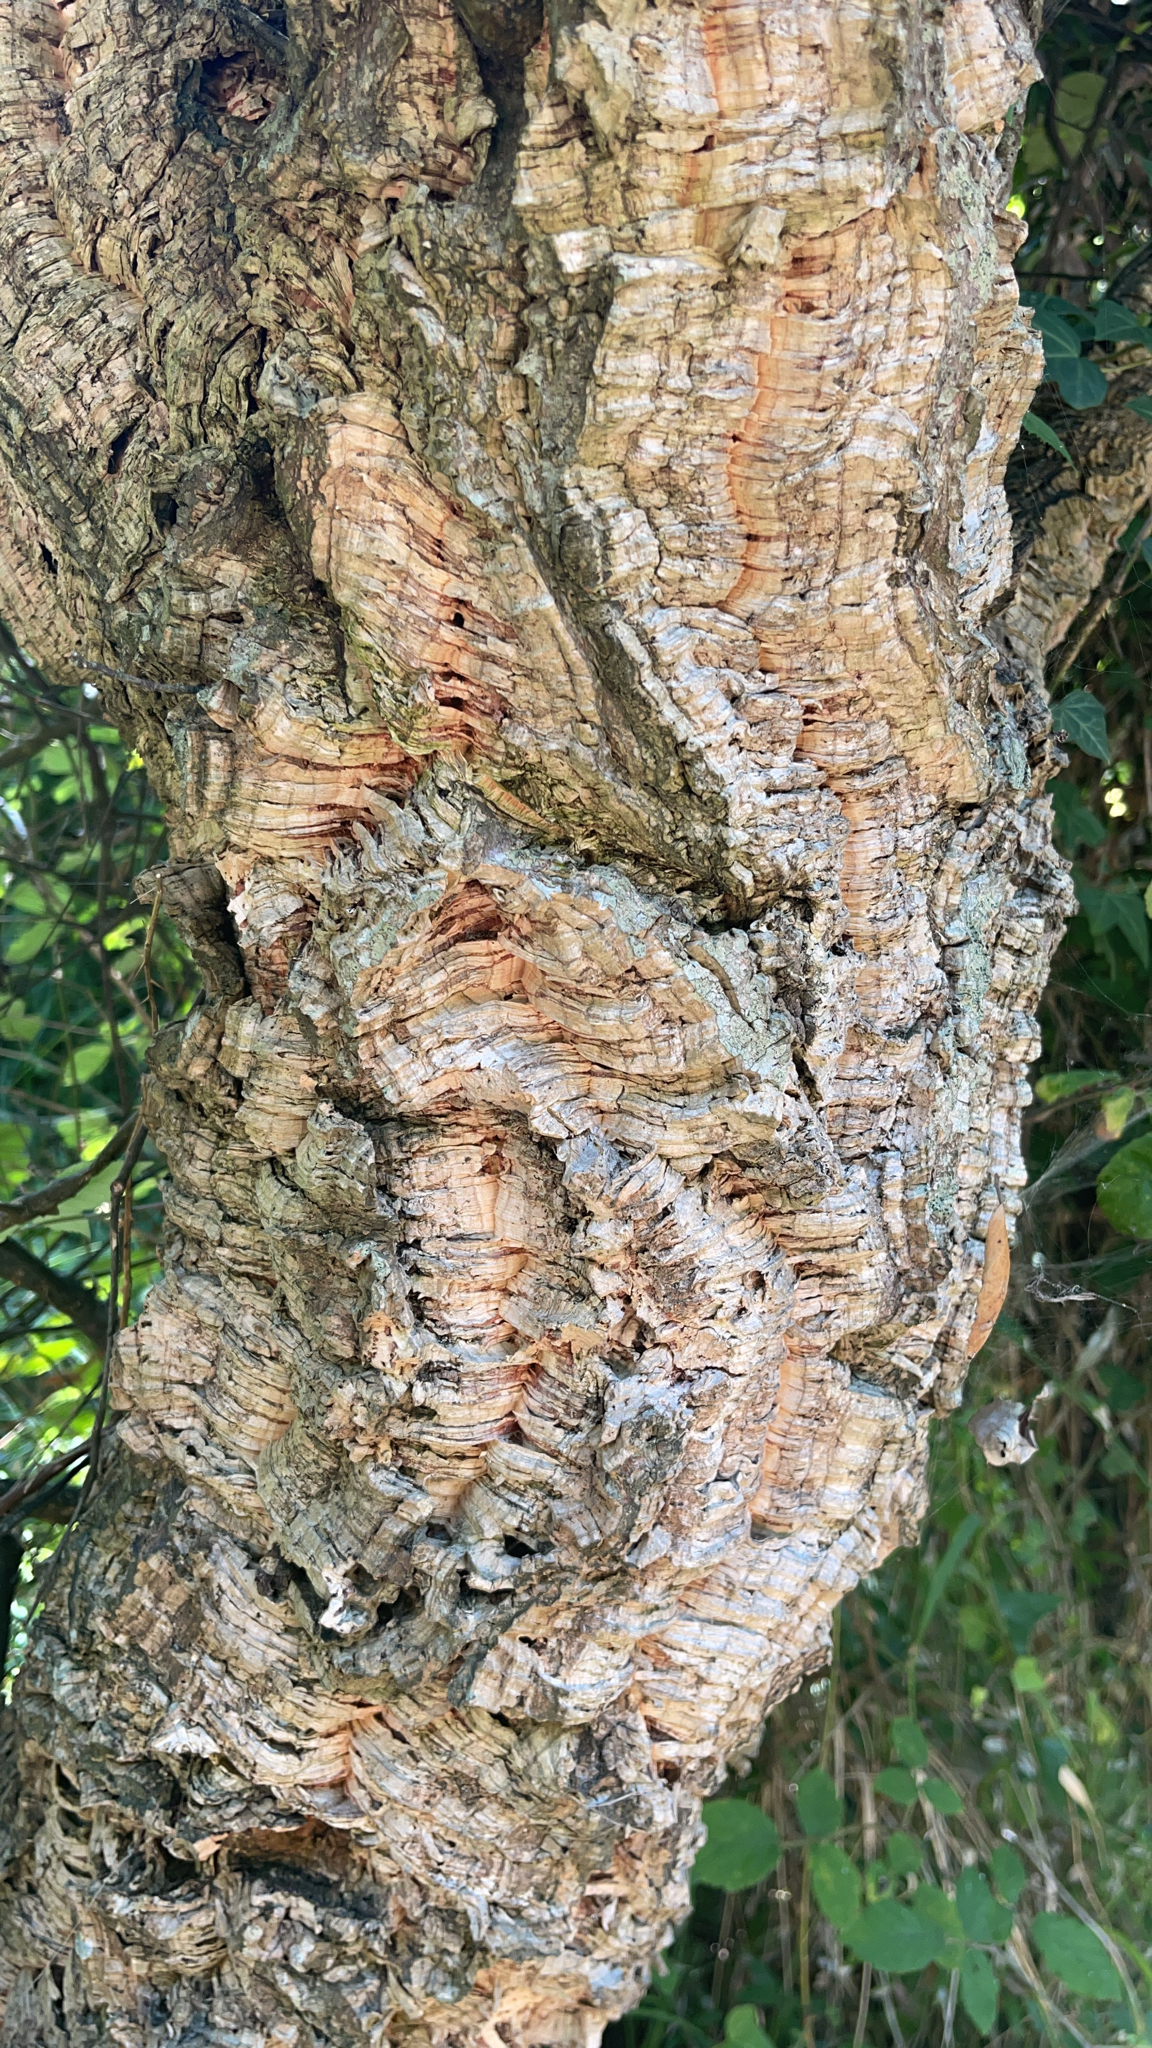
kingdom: Plantae
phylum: Tracheophyta
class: Magnoliopsida
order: Fagales
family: Fagaceae
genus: Quercus
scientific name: Quercus suber
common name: Cork oak
